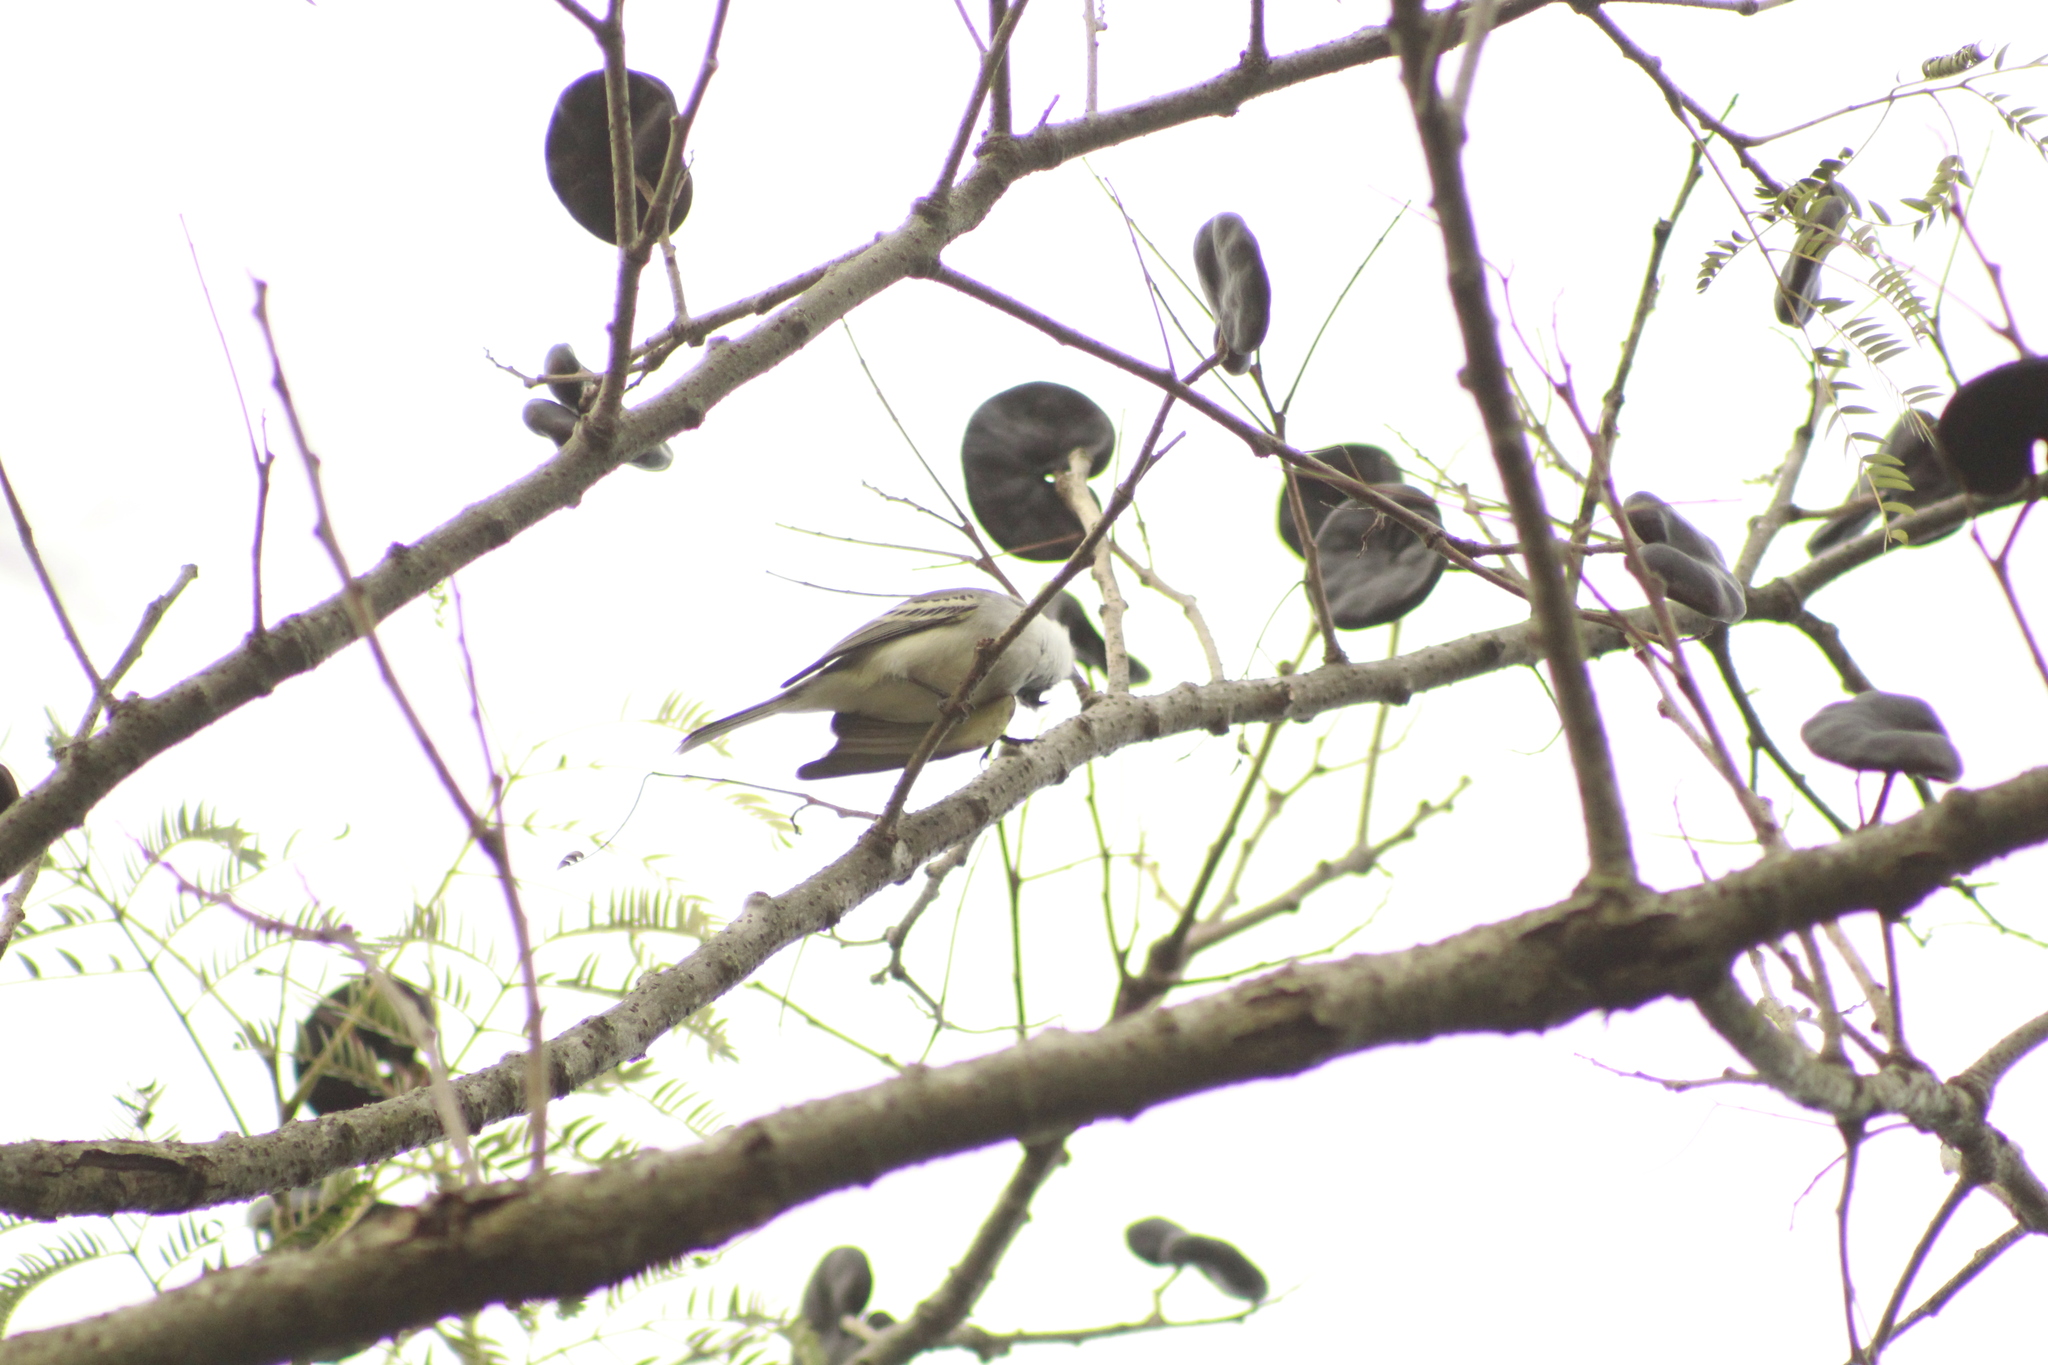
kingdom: Animalia
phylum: Chordata
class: Aves
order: Passeriformes
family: Tyrannidae
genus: Suiriri
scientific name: Suiriri suiriri
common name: Suiriri flycatcher
